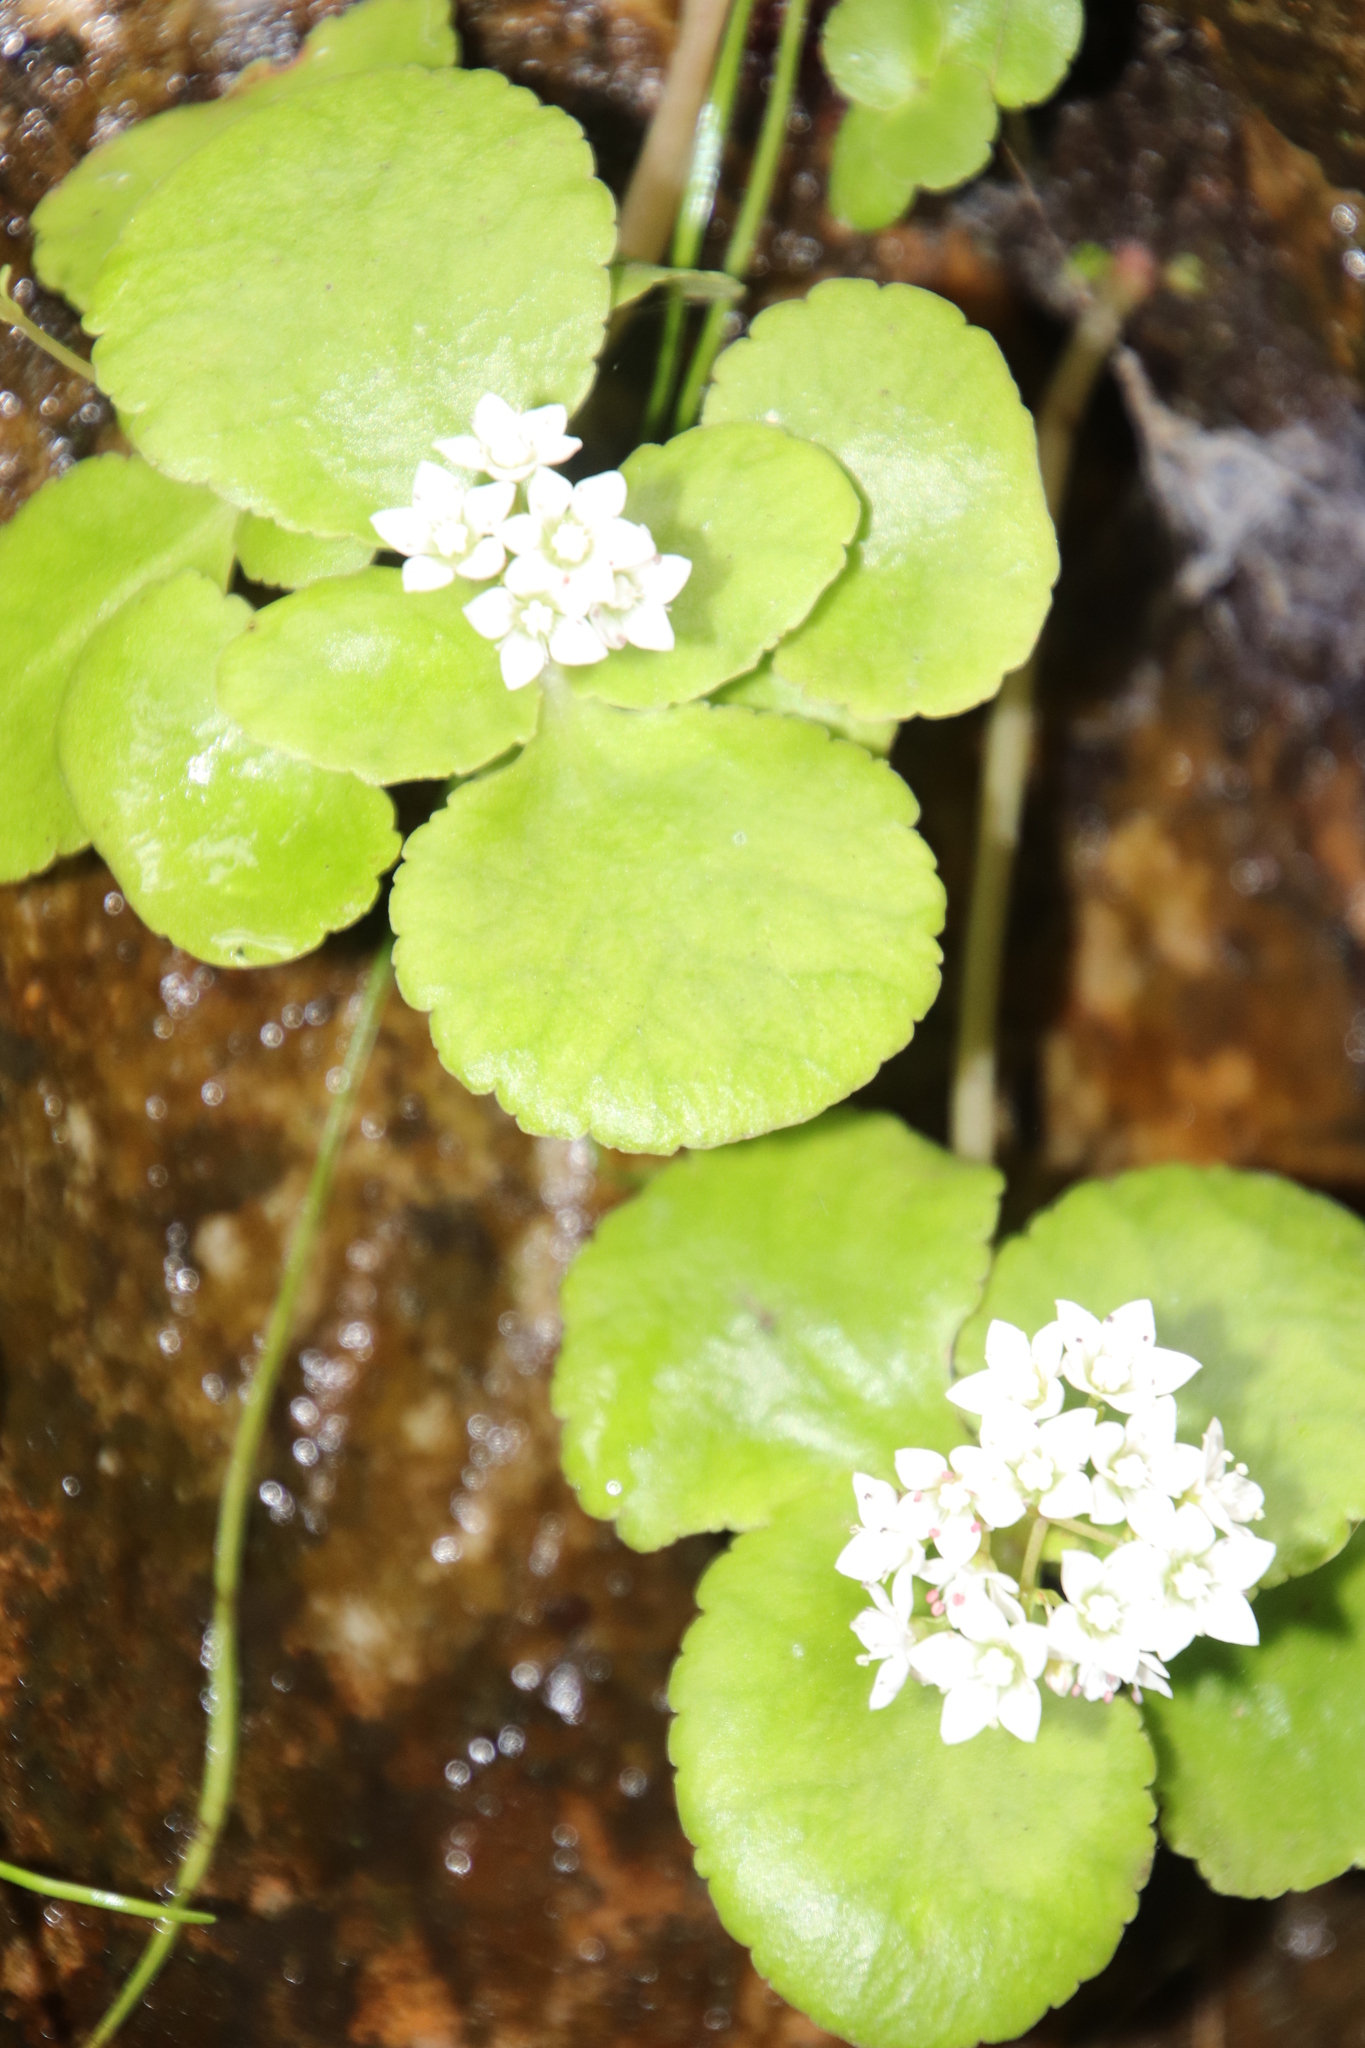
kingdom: Plantae
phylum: Tracheophyta
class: Magnoliopsida
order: Saxifragales
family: Crassulaceae
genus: Crassula
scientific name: Crassula capensis
